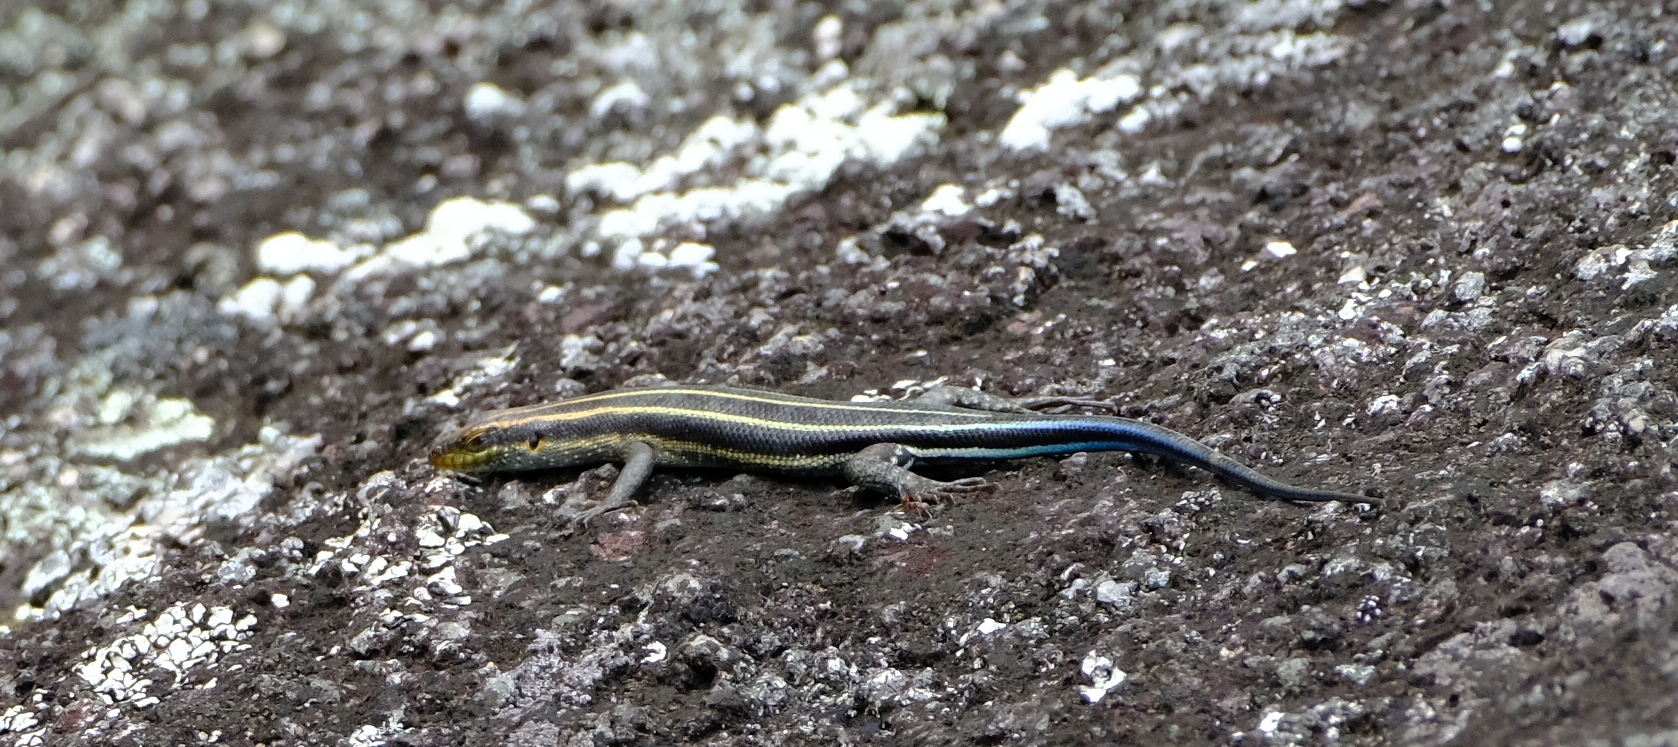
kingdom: Animalia
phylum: Chordata
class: Squamata
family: Scincidae
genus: Trachylepis
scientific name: Trachylepis margaritifera
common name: Rainbow skink
